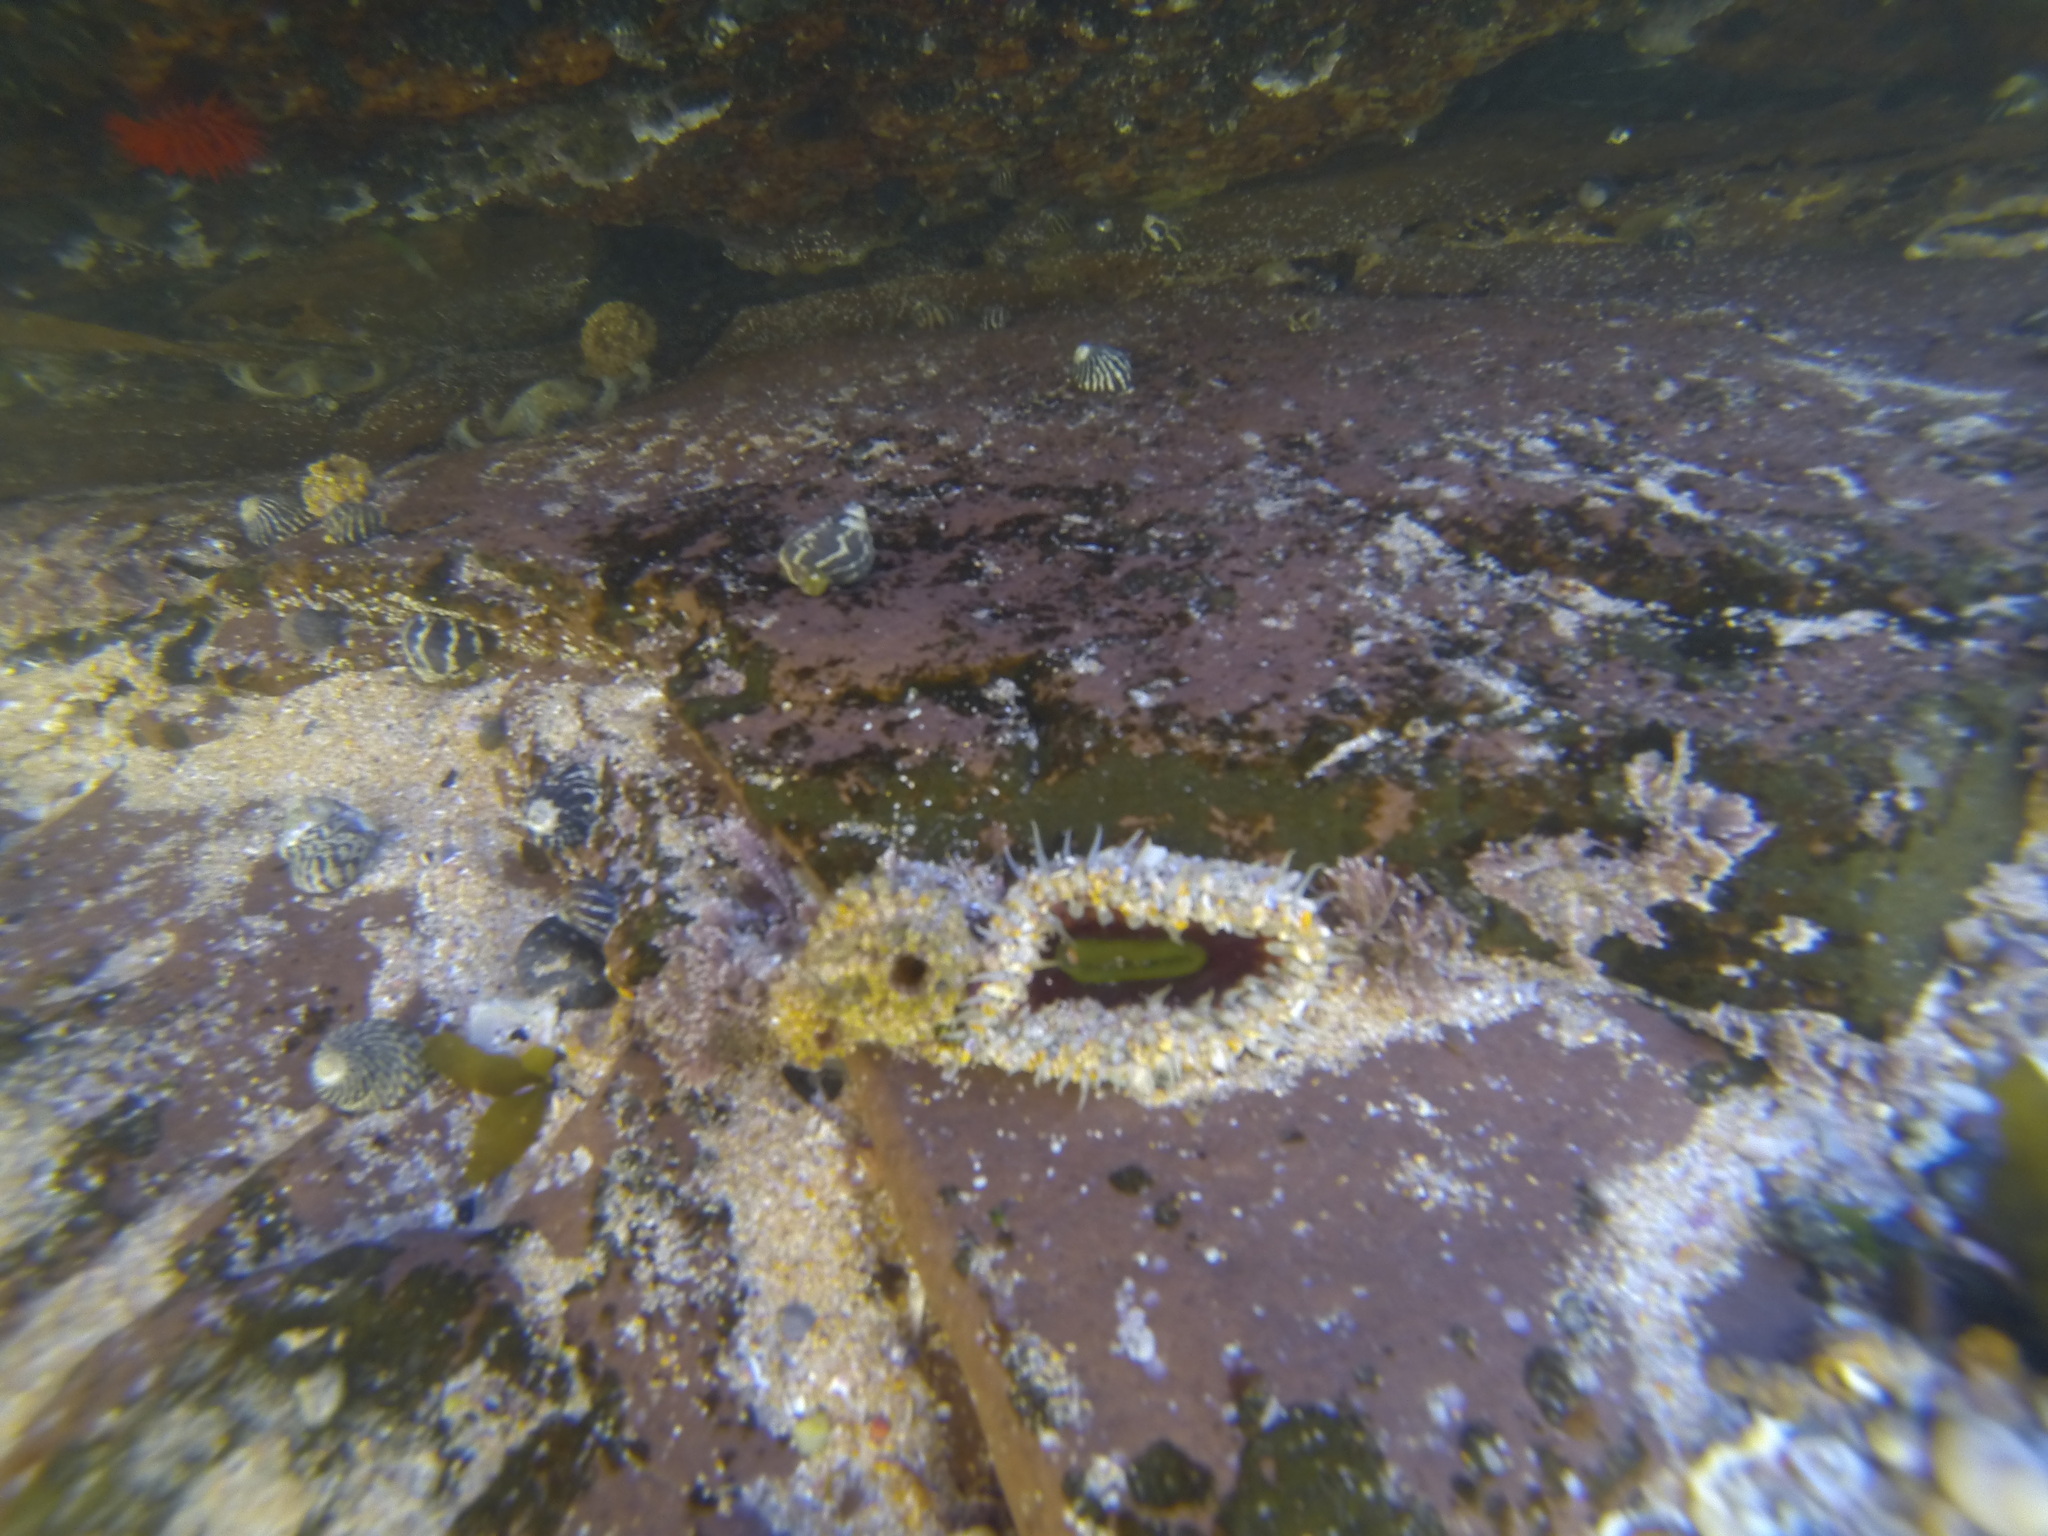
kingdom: Animalia
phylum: Cnidaria
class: Anthozoa
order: Actiniaria
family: Actiniidae
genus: Oulactis
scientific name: Oulactis muscosa
